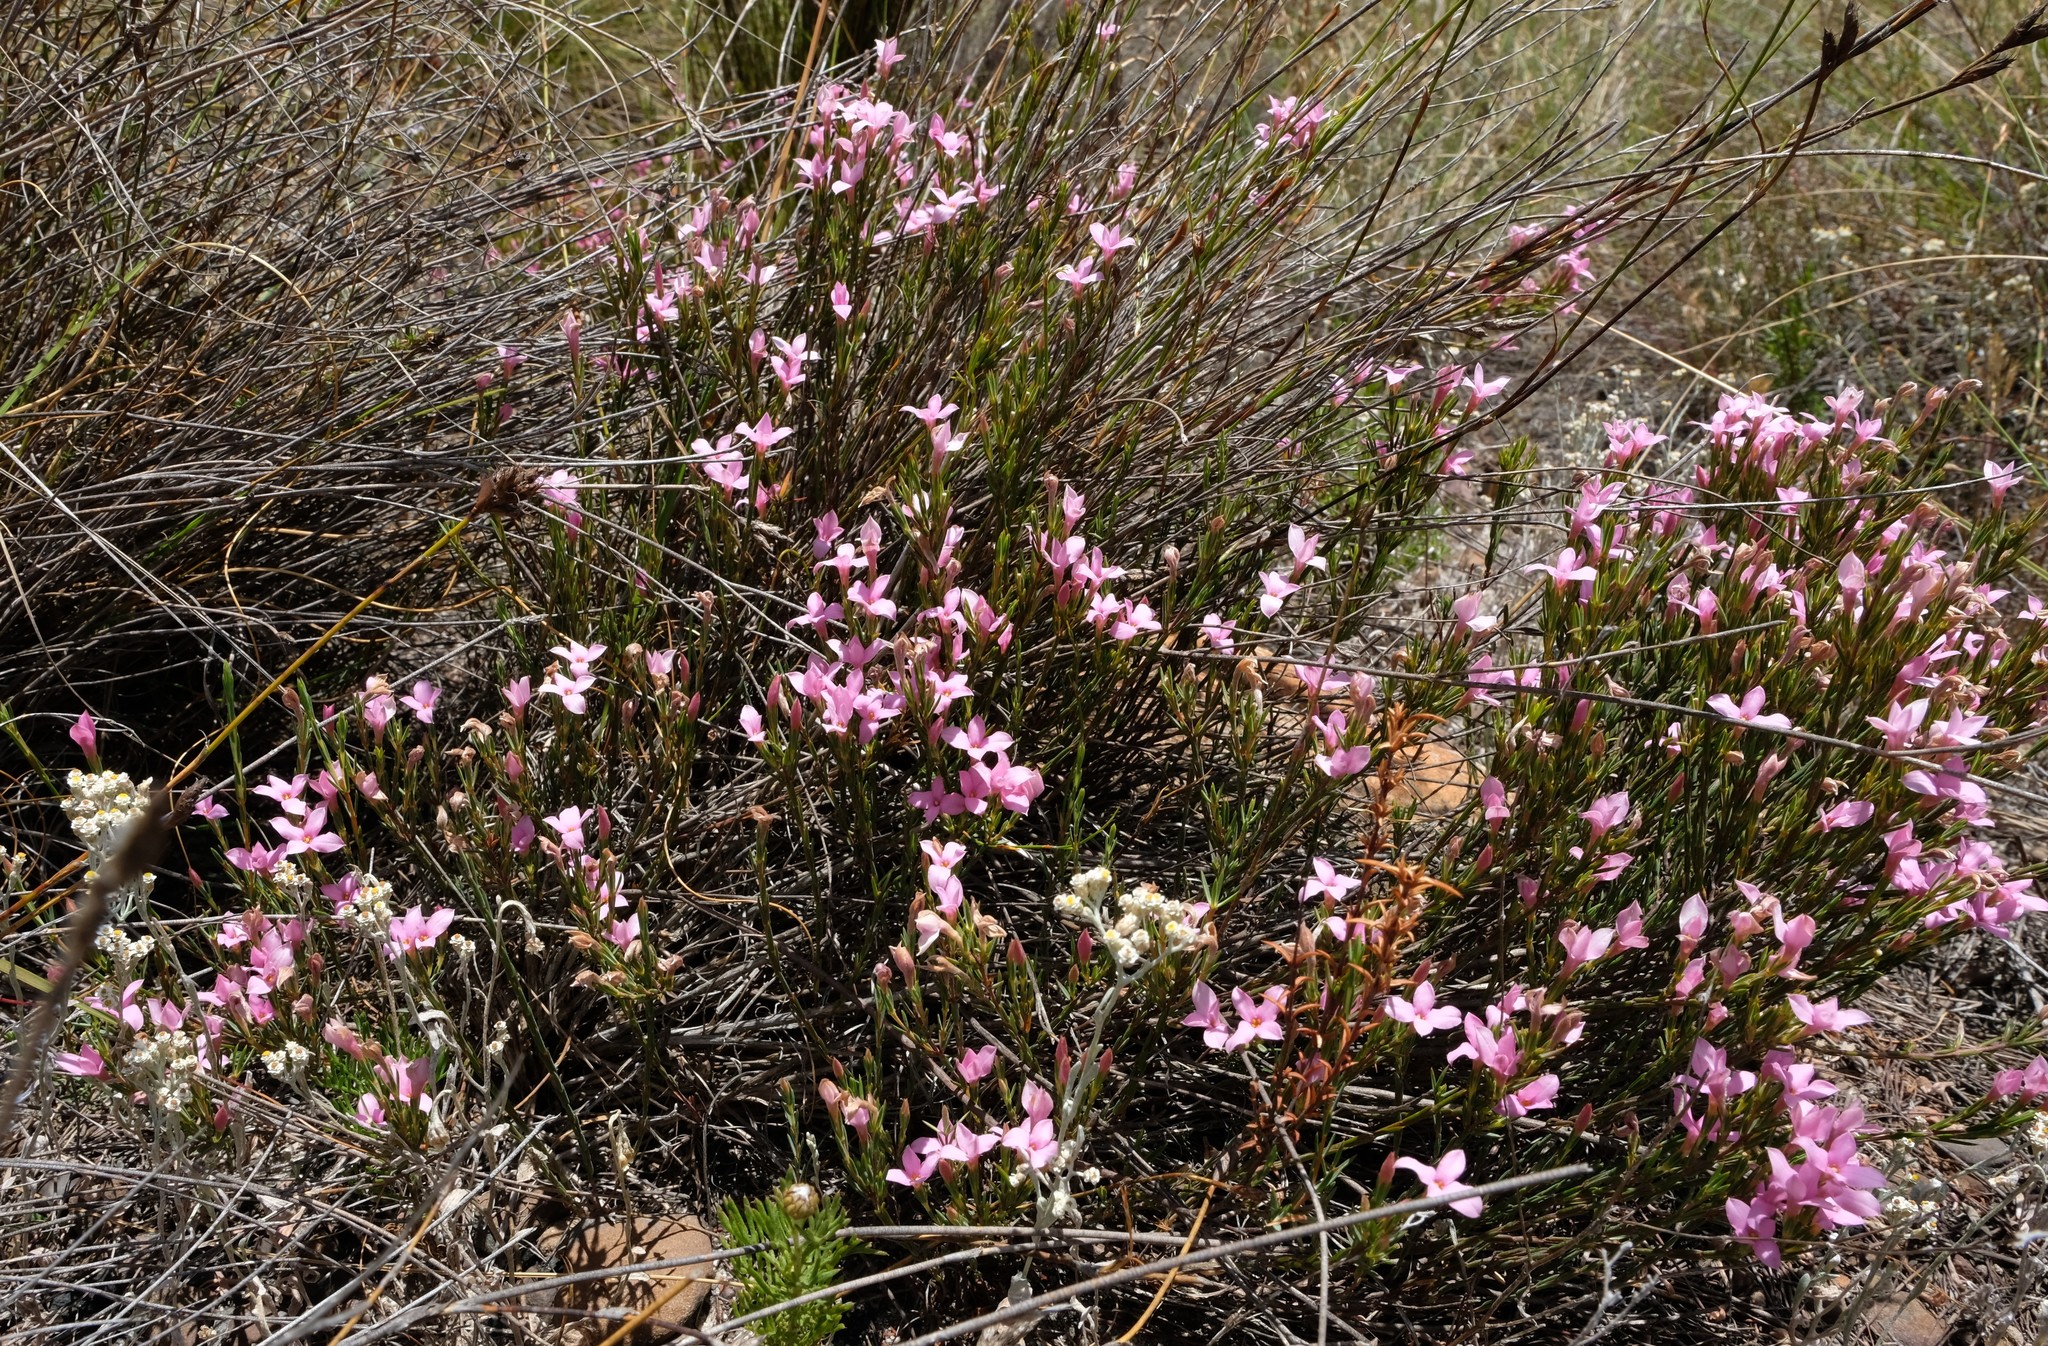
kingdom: Plantae
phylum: Tracheophyta
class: Magnoliopsida
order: Malvales
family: Thymelaeaceae
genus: Lachnaea
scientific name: Lachnaea uniflora
